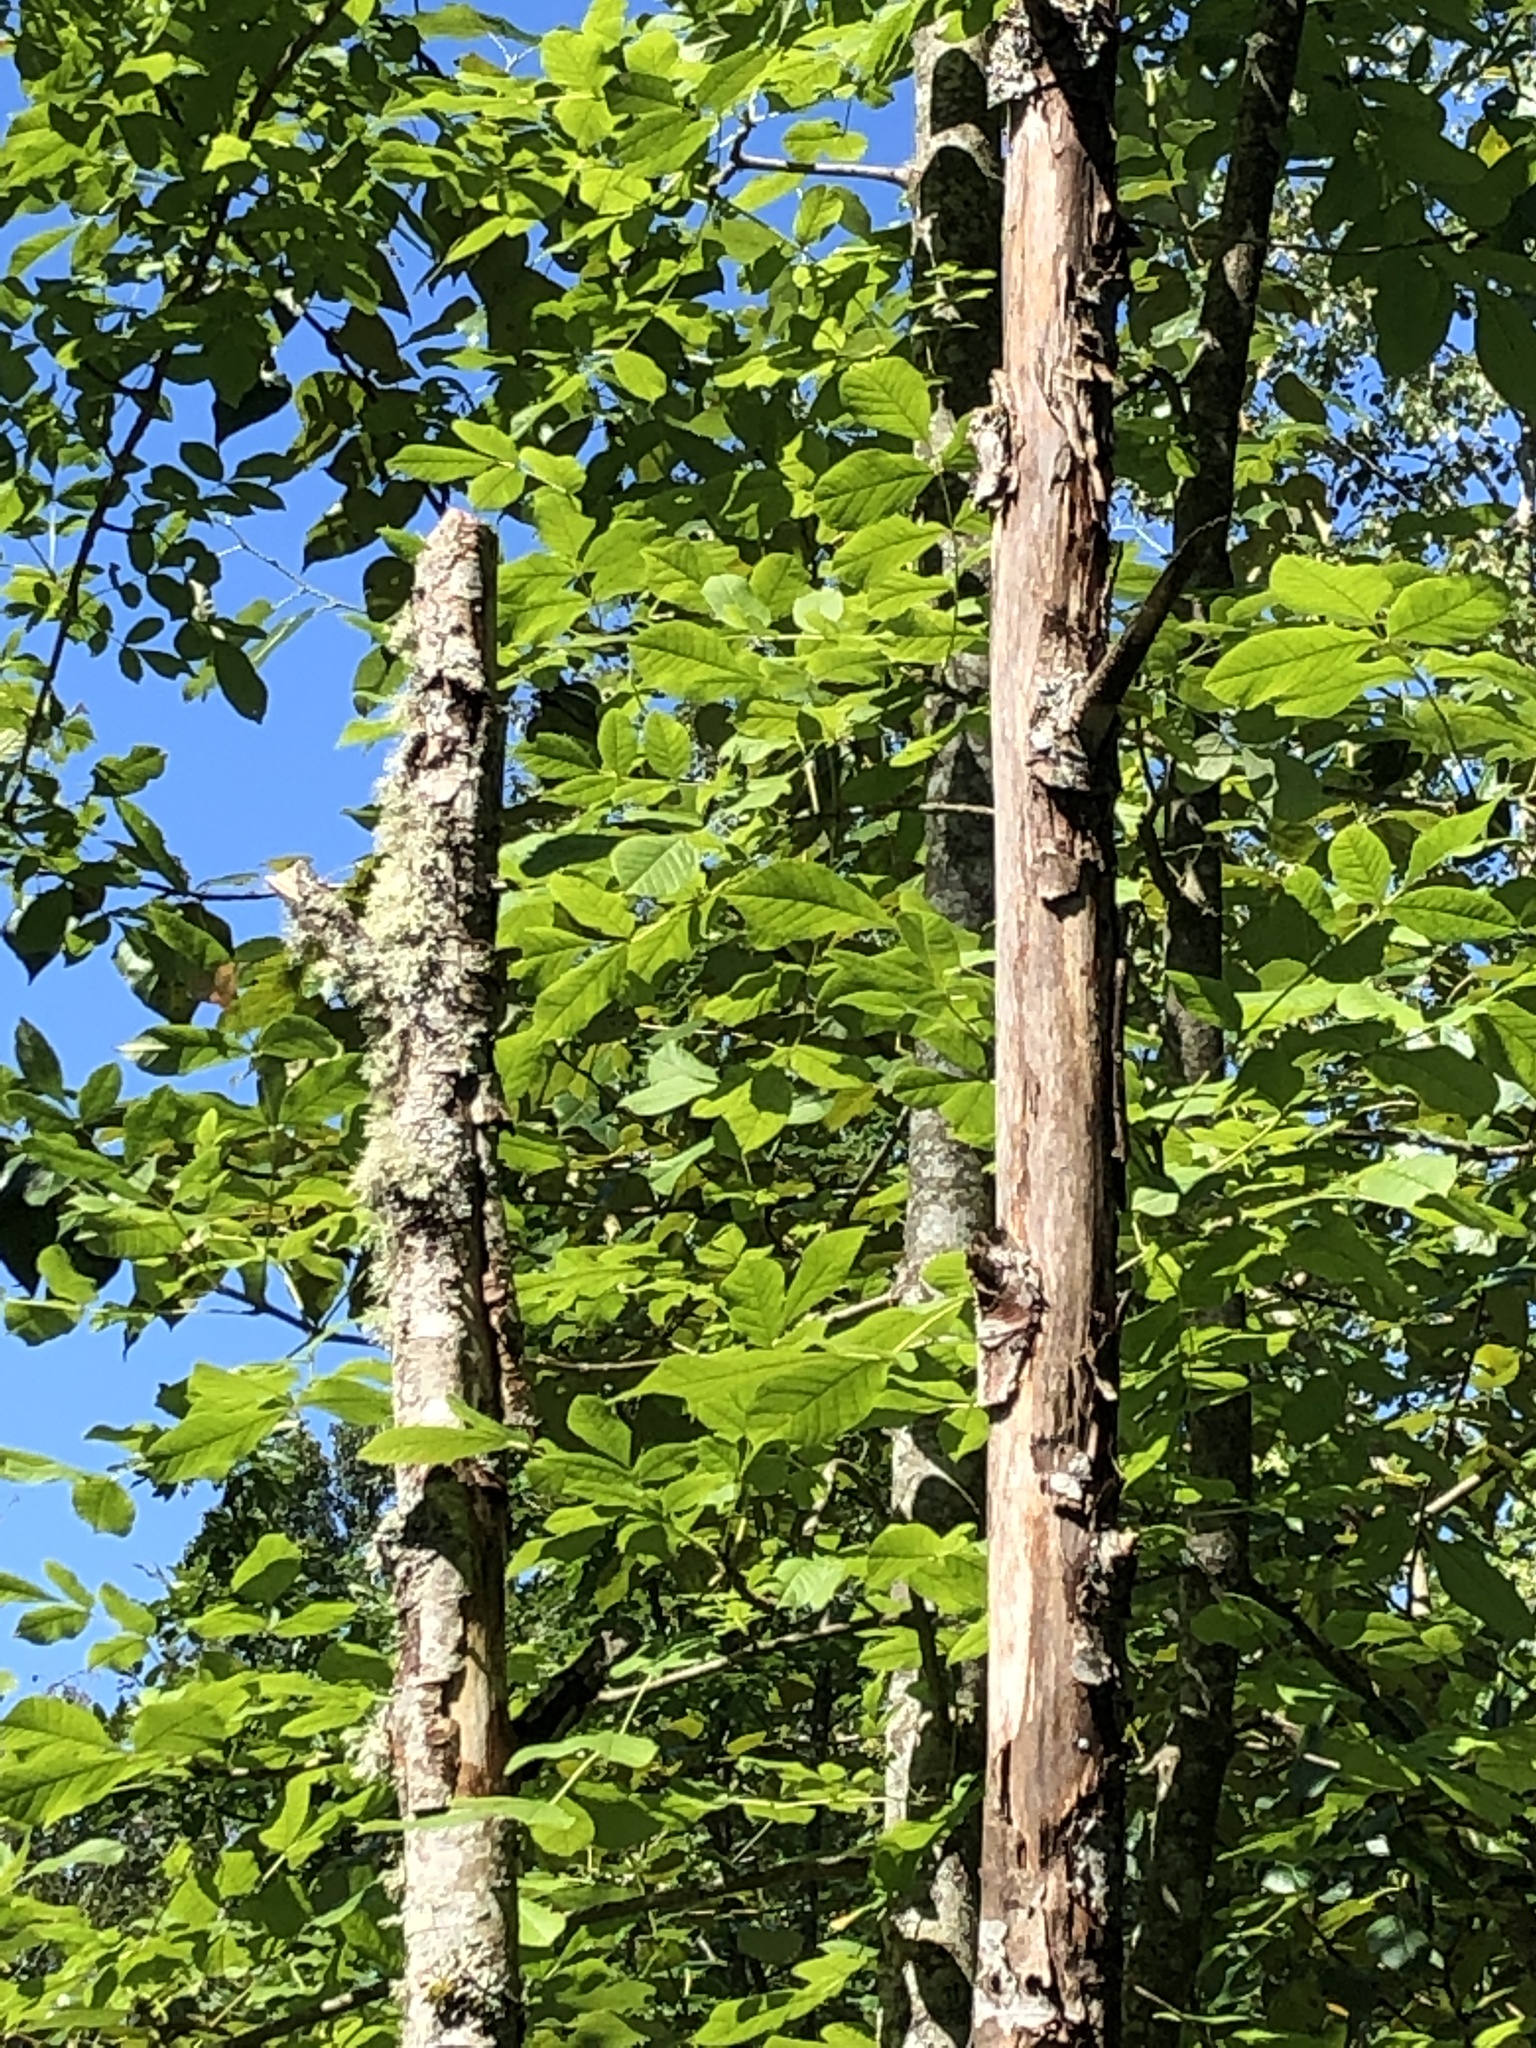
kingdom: Plantae
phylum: Tracheophyta
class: Magnoliopsida
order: Lamiales
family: Oleaceae
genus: Fraxinus
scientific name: Fraxinus latifolia
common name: Oregon ash
